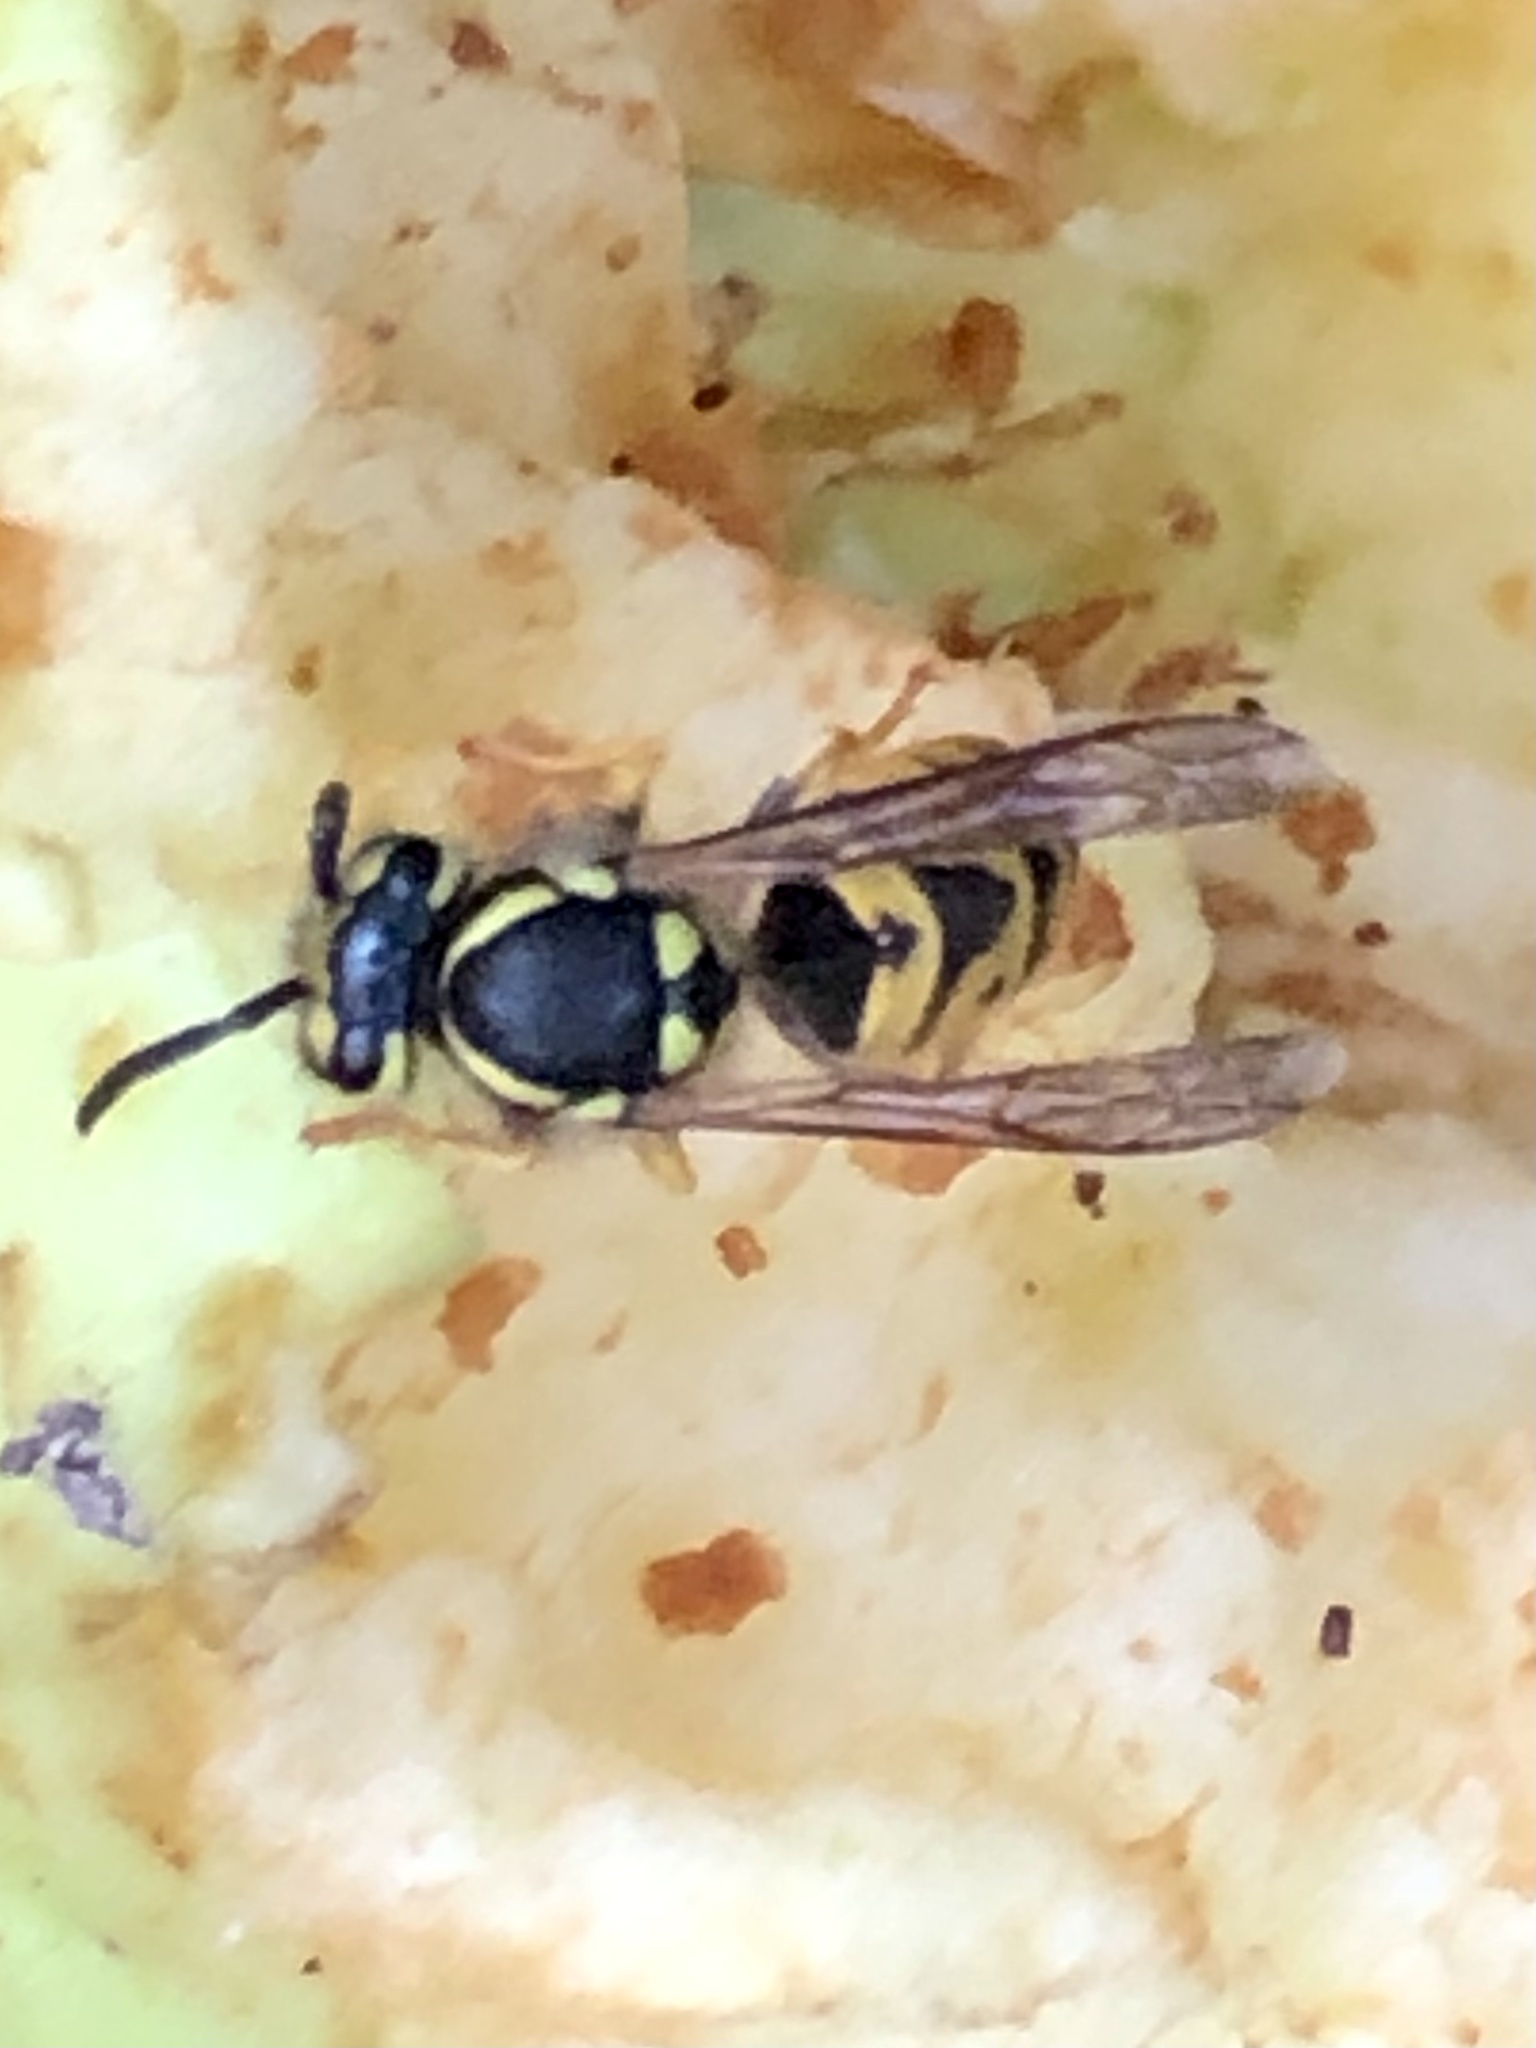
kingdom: Animalia
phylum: Arthropoda
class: Insecta
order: Hymenoptera
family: Vespidae
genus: Vespula
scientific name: Vespula germanica
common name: German wasp
